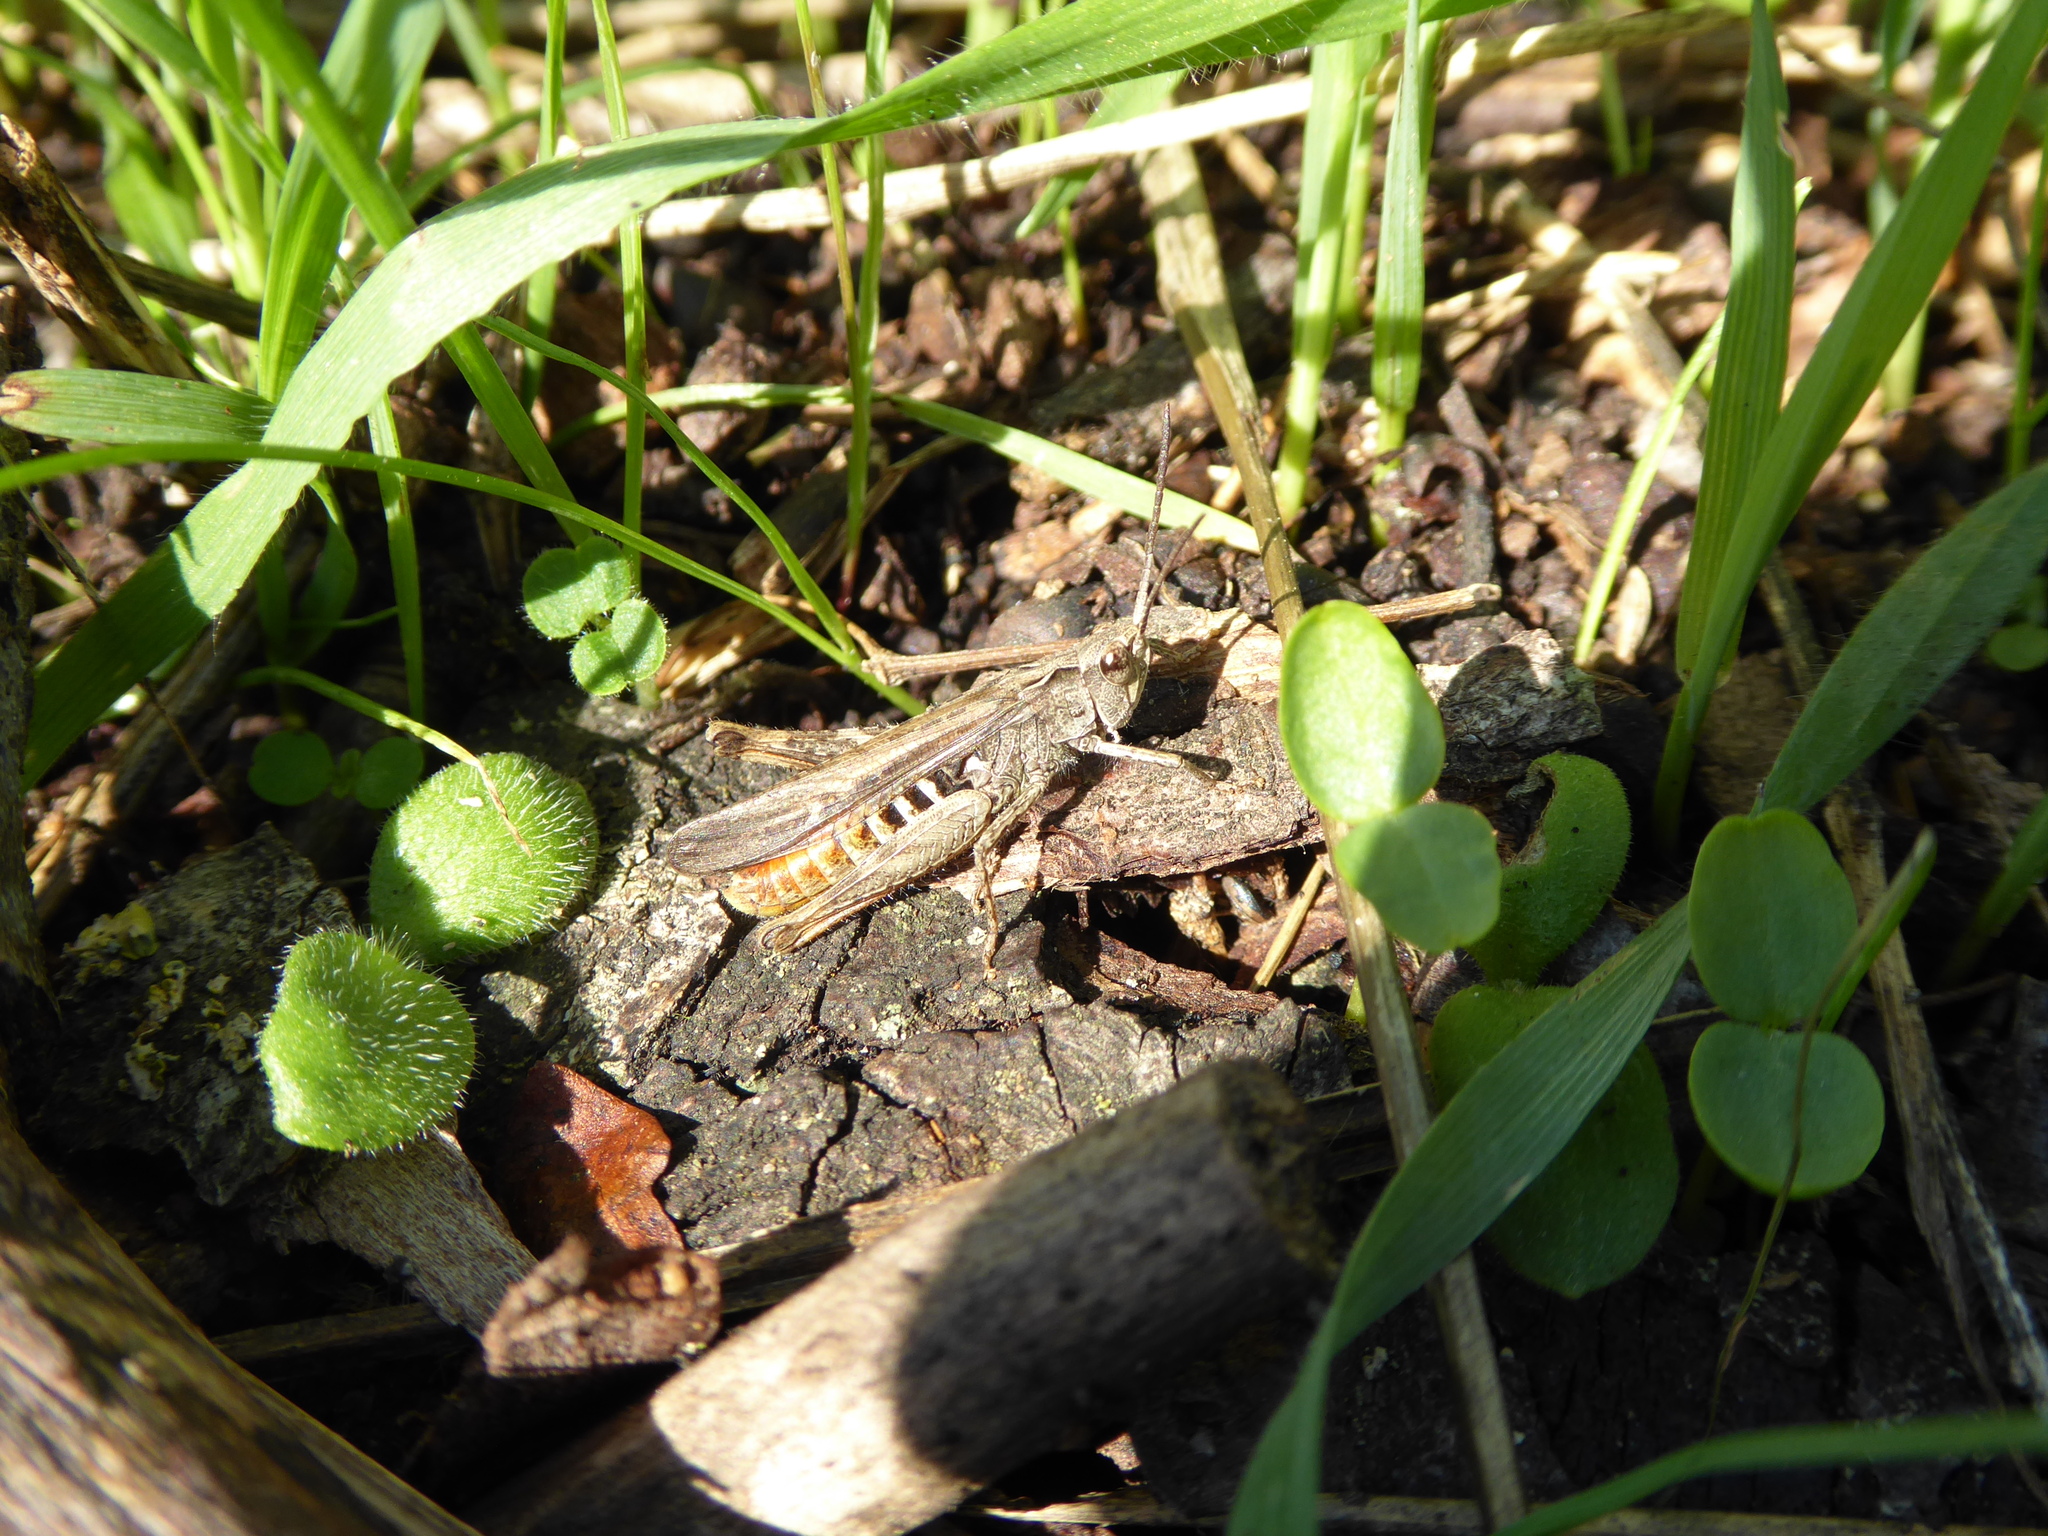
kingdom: Animalia
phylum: Arthropoda
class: Insecta
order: Orthoptera
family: Acrididae
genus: Chorthippus
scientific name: Chorthippus brunneus
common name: Field grasshopper
